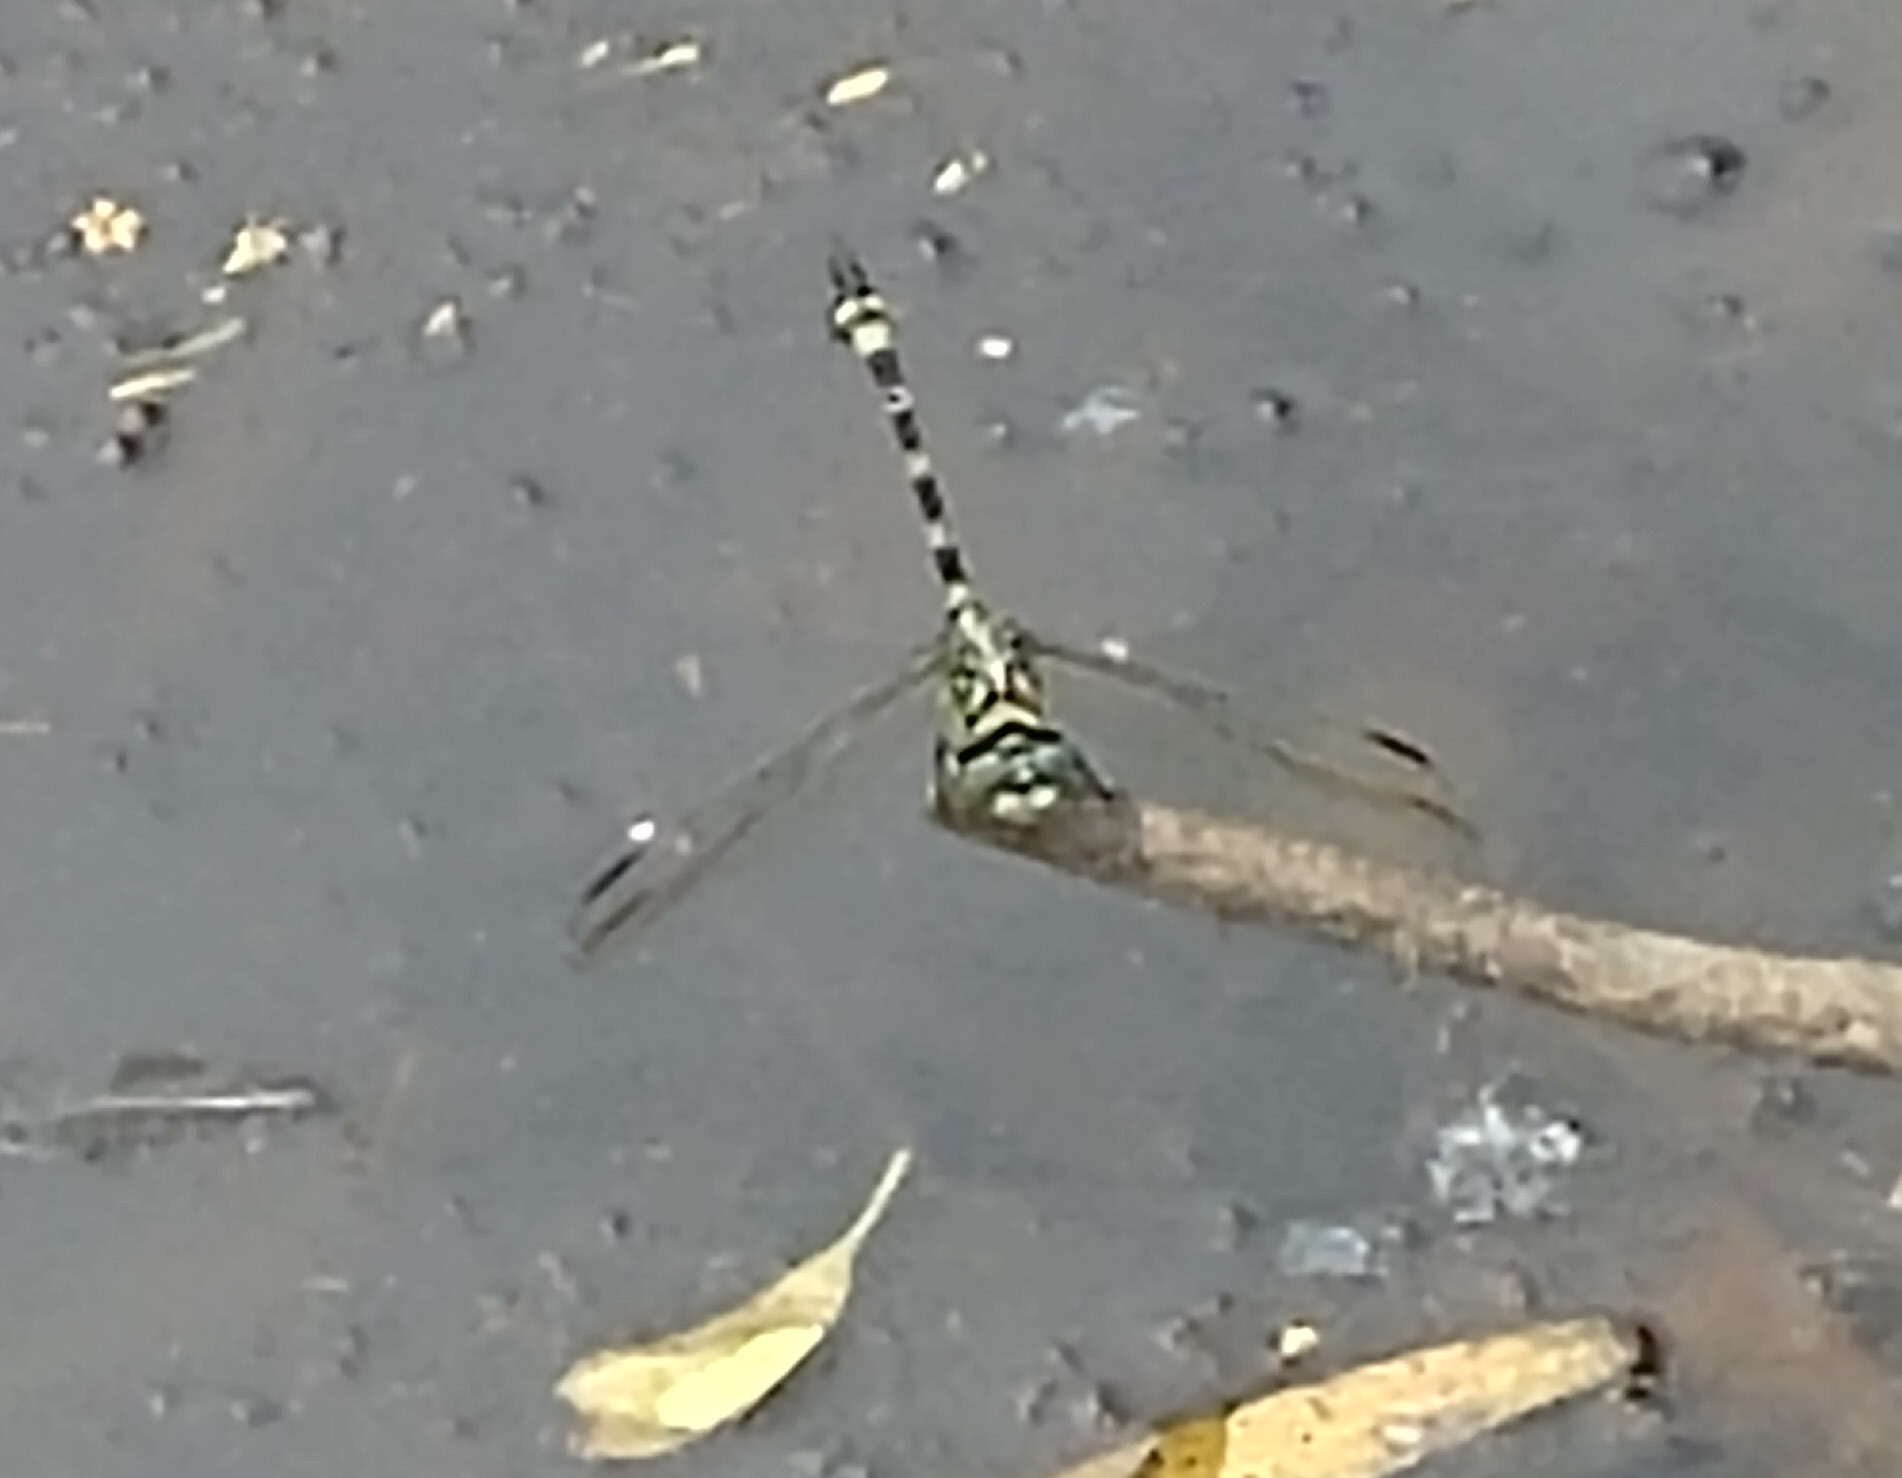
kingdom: Animalia
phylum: Arthropoda
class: Insecta
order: Odonata
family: Gomphidae
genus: Ictinogomphus
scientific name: Ictinogomphus australis
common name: Australian tiger
